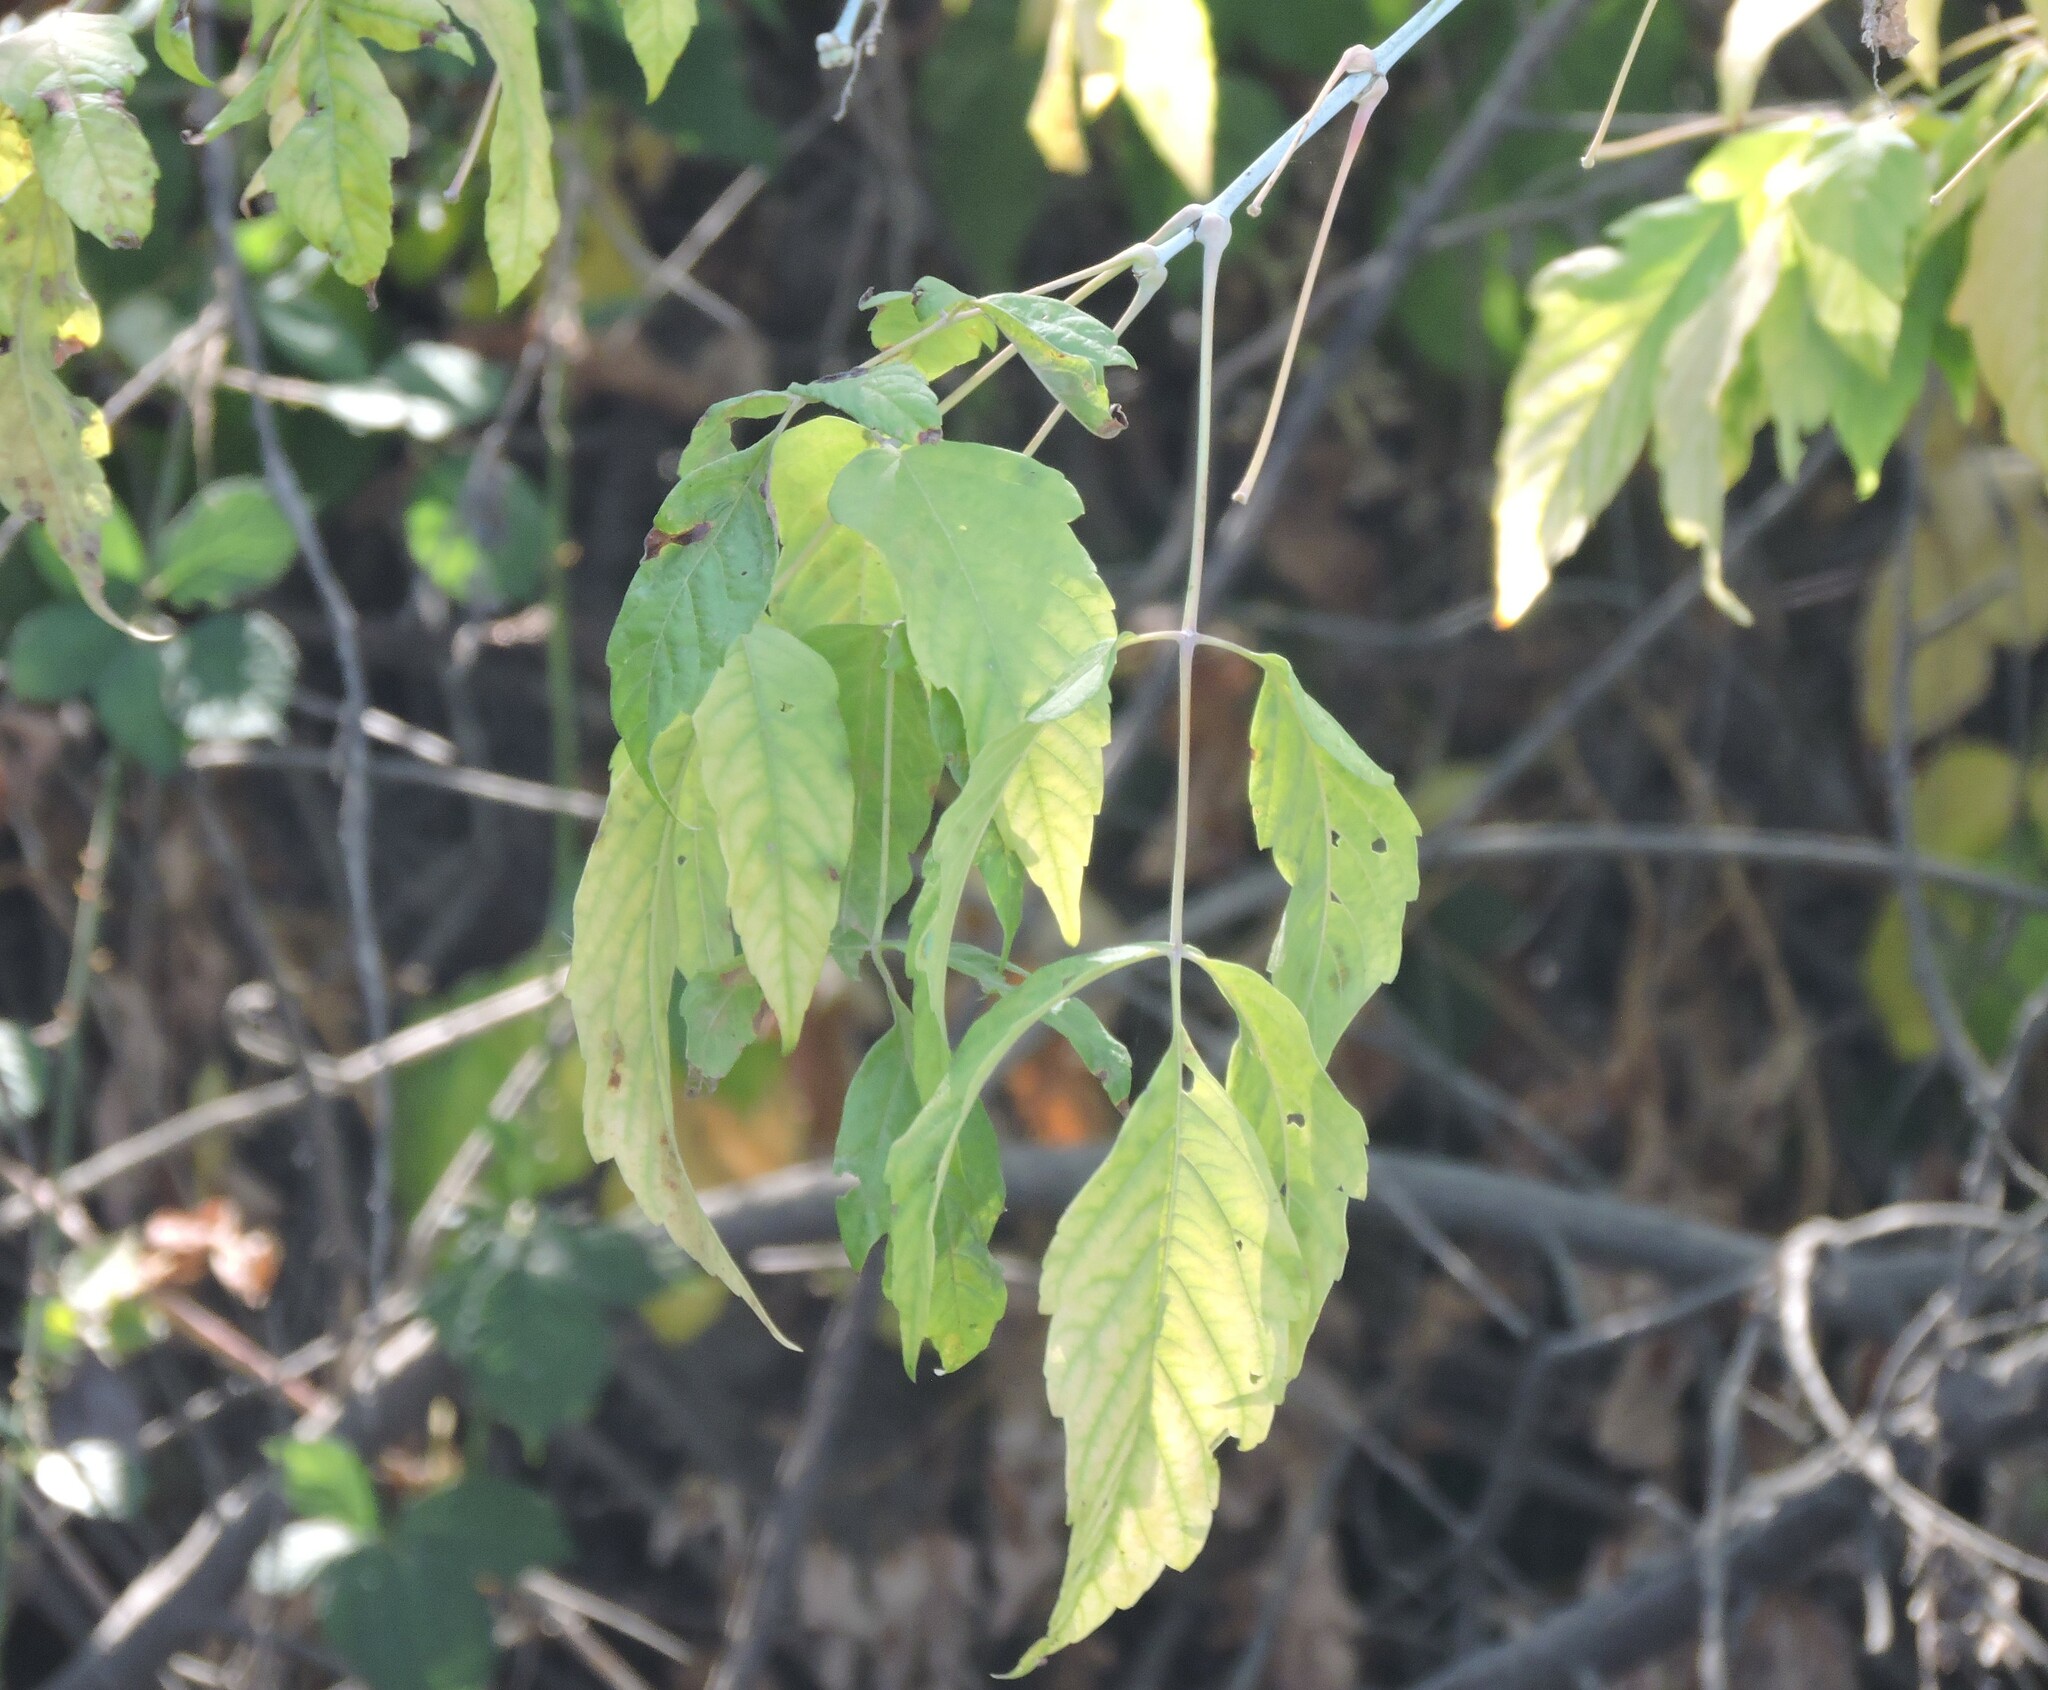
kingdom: Plantae
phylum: Tracheophyta
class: Magnoliopsida
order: Sapindales
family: Sapindaceae
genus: Acer
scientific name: Acer negundo
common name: Ashleaf maple
